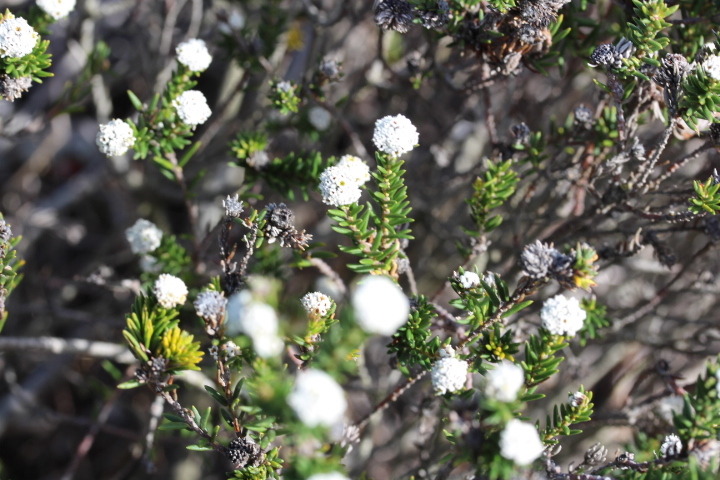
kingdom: Plantae
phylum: Tracheophyta
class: Magnoliopsida
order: Rosales
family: Rhamnaceae
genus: Phylica
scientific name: Phylica ericoides
